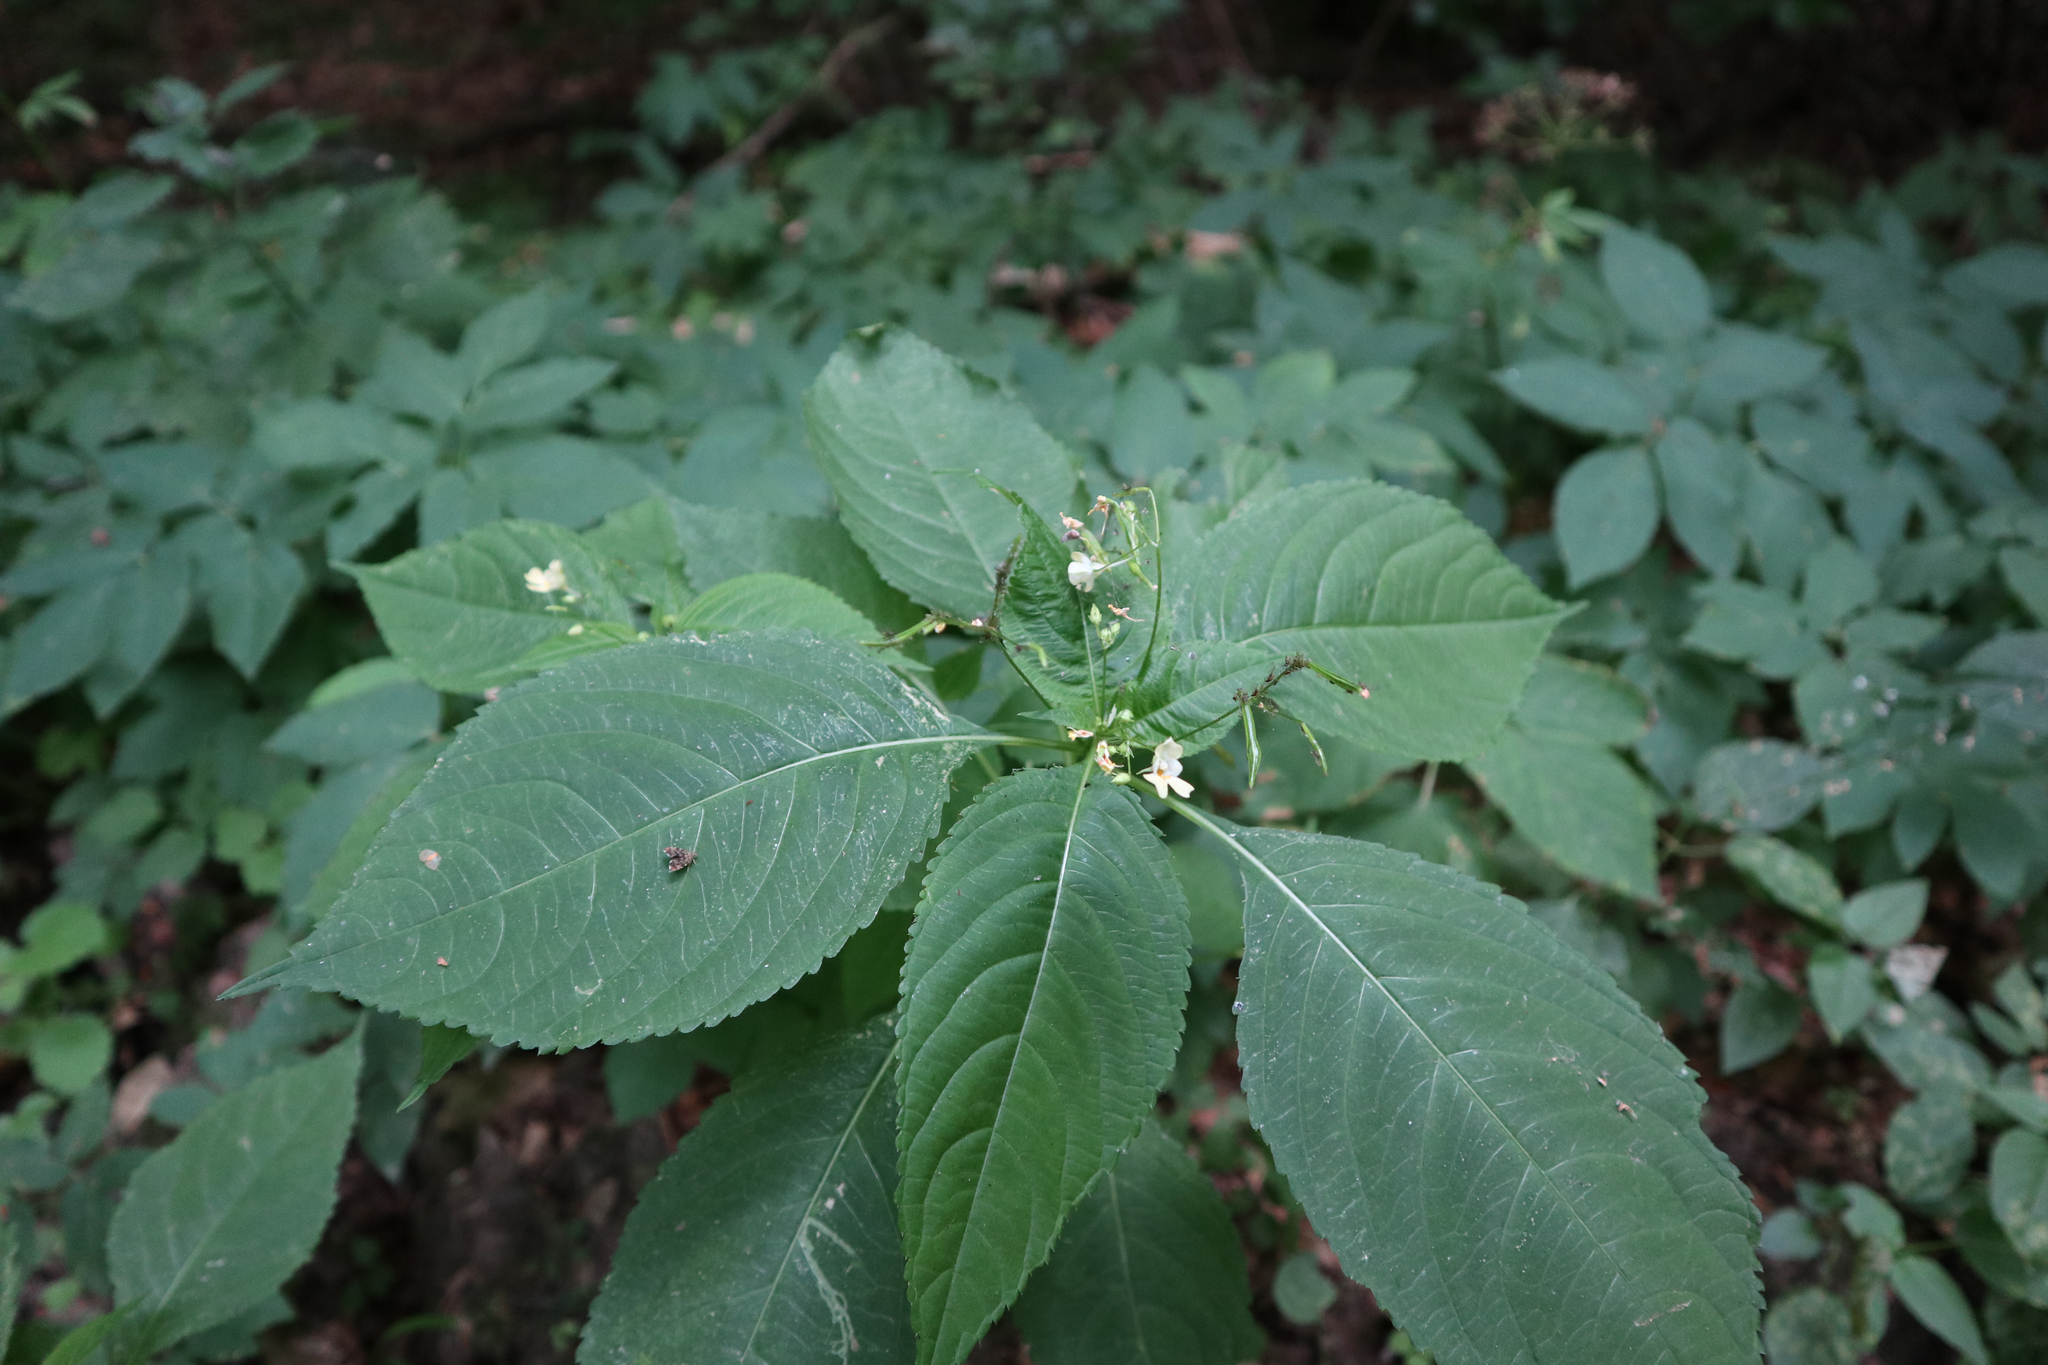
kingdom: Plantae
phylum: Tracheophyta
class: Magnoliopsida
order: Ericales
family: Balsaminaceae
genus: Impatiens
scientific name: Impatiens parviflora
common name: Small balsam
